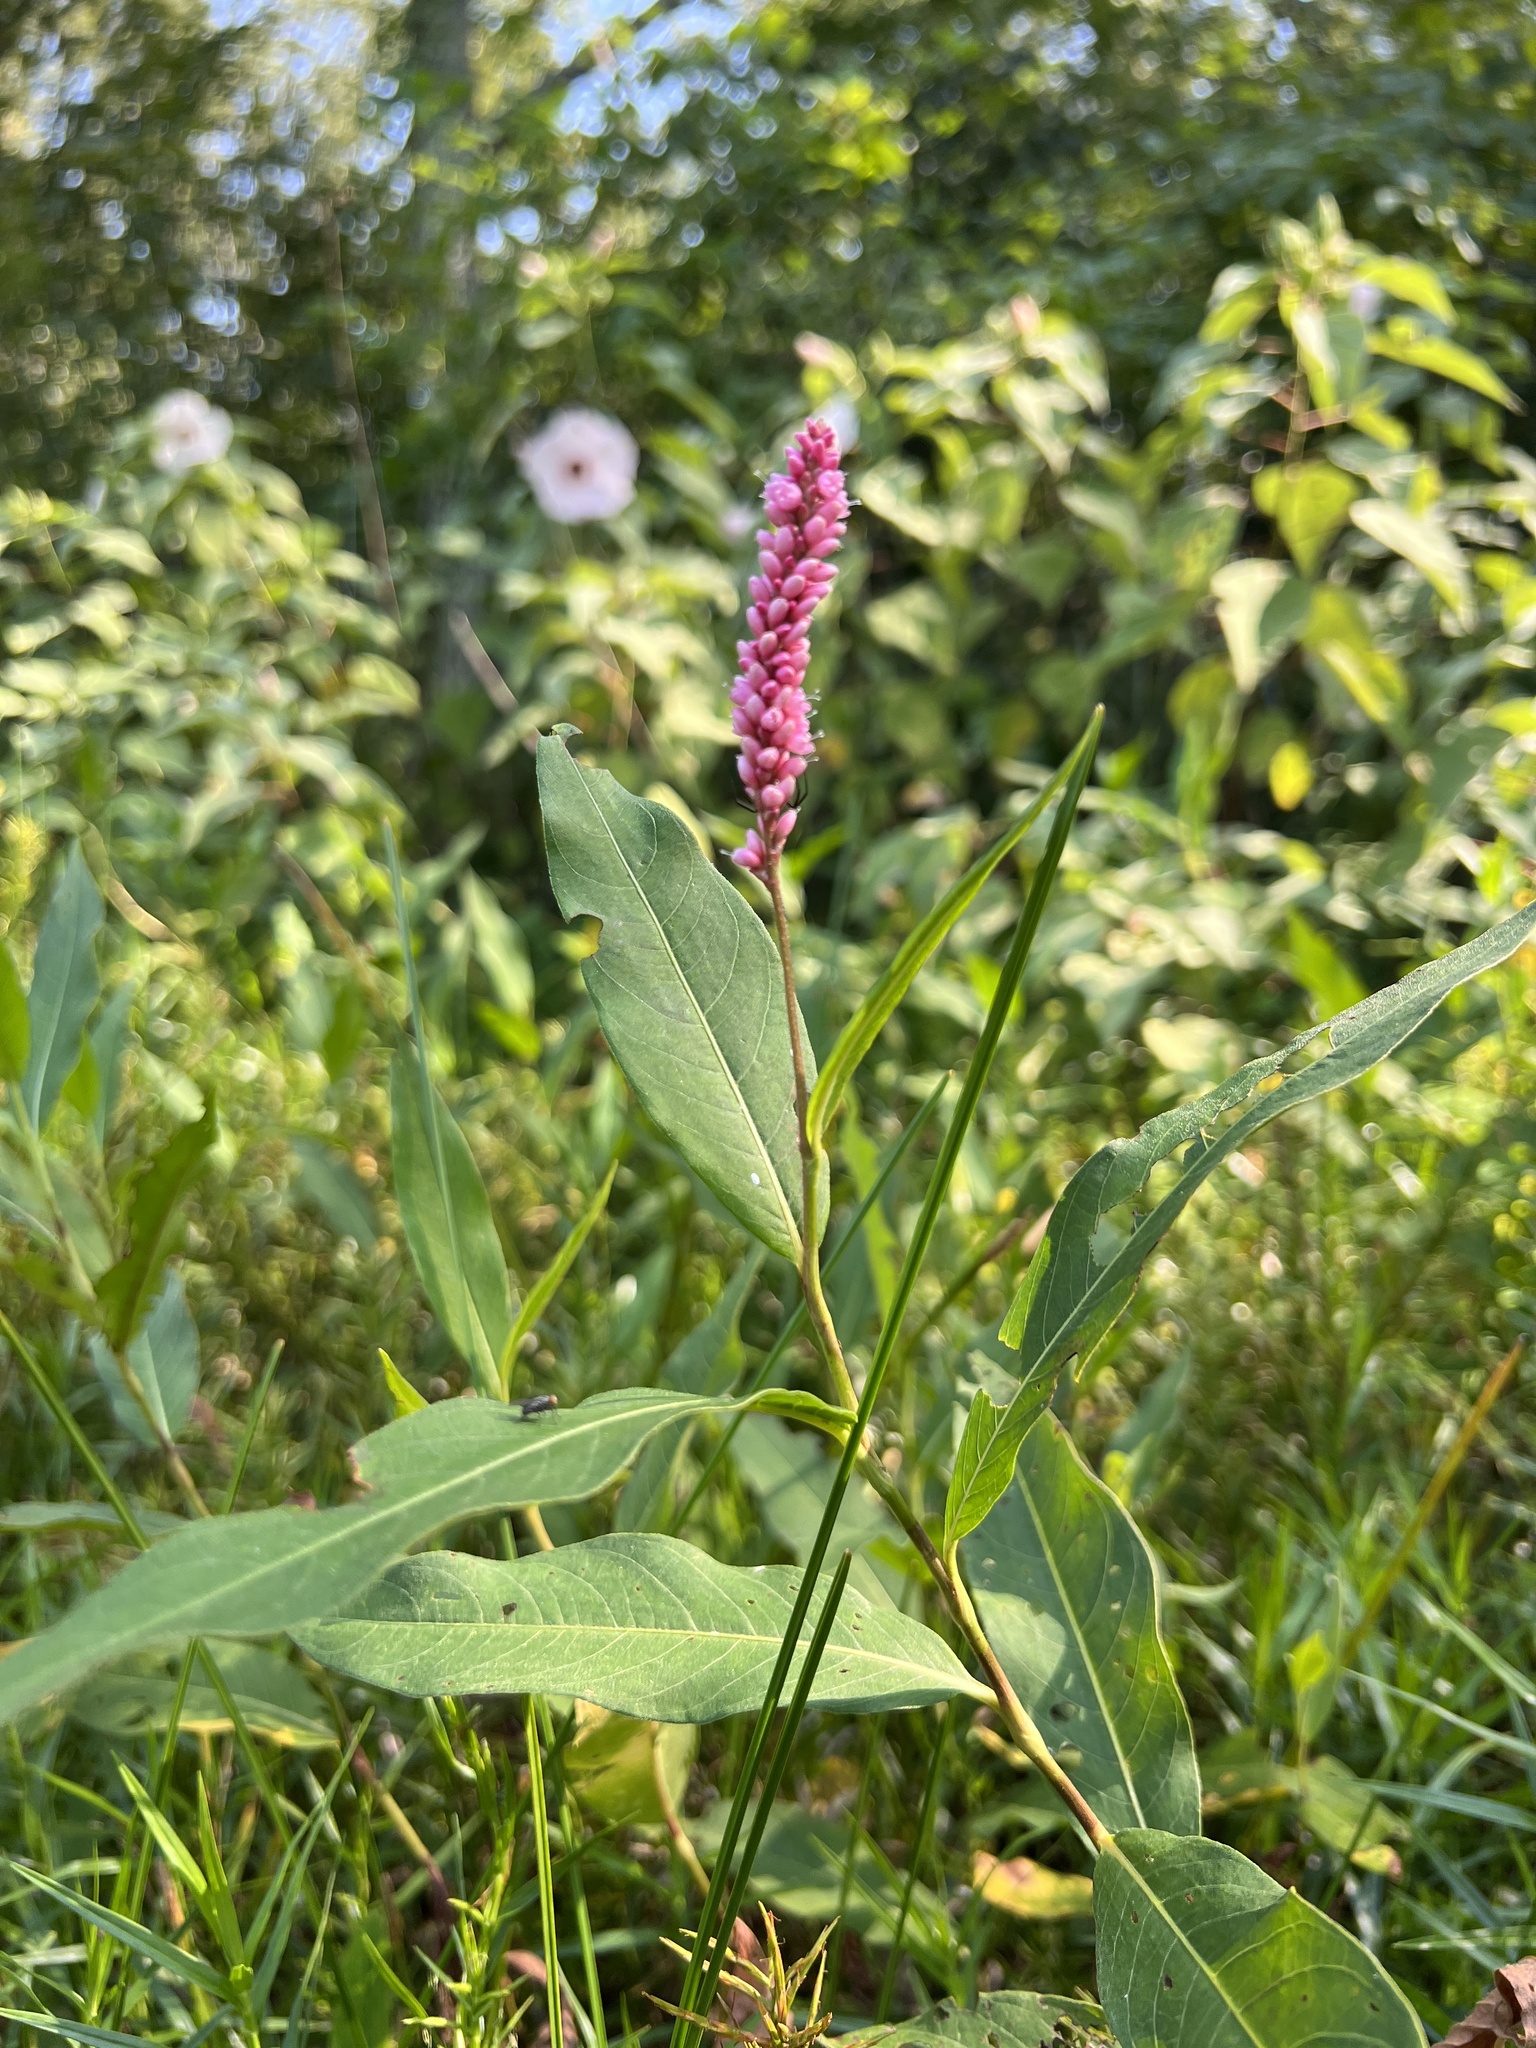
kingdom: Plantae
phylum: Tracheophyta
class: Magnoliopsida
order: Caryophyllales
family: Polygonaceae
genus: Persicaria
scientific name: Persicaria amphibia
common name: Amphibious bistort
